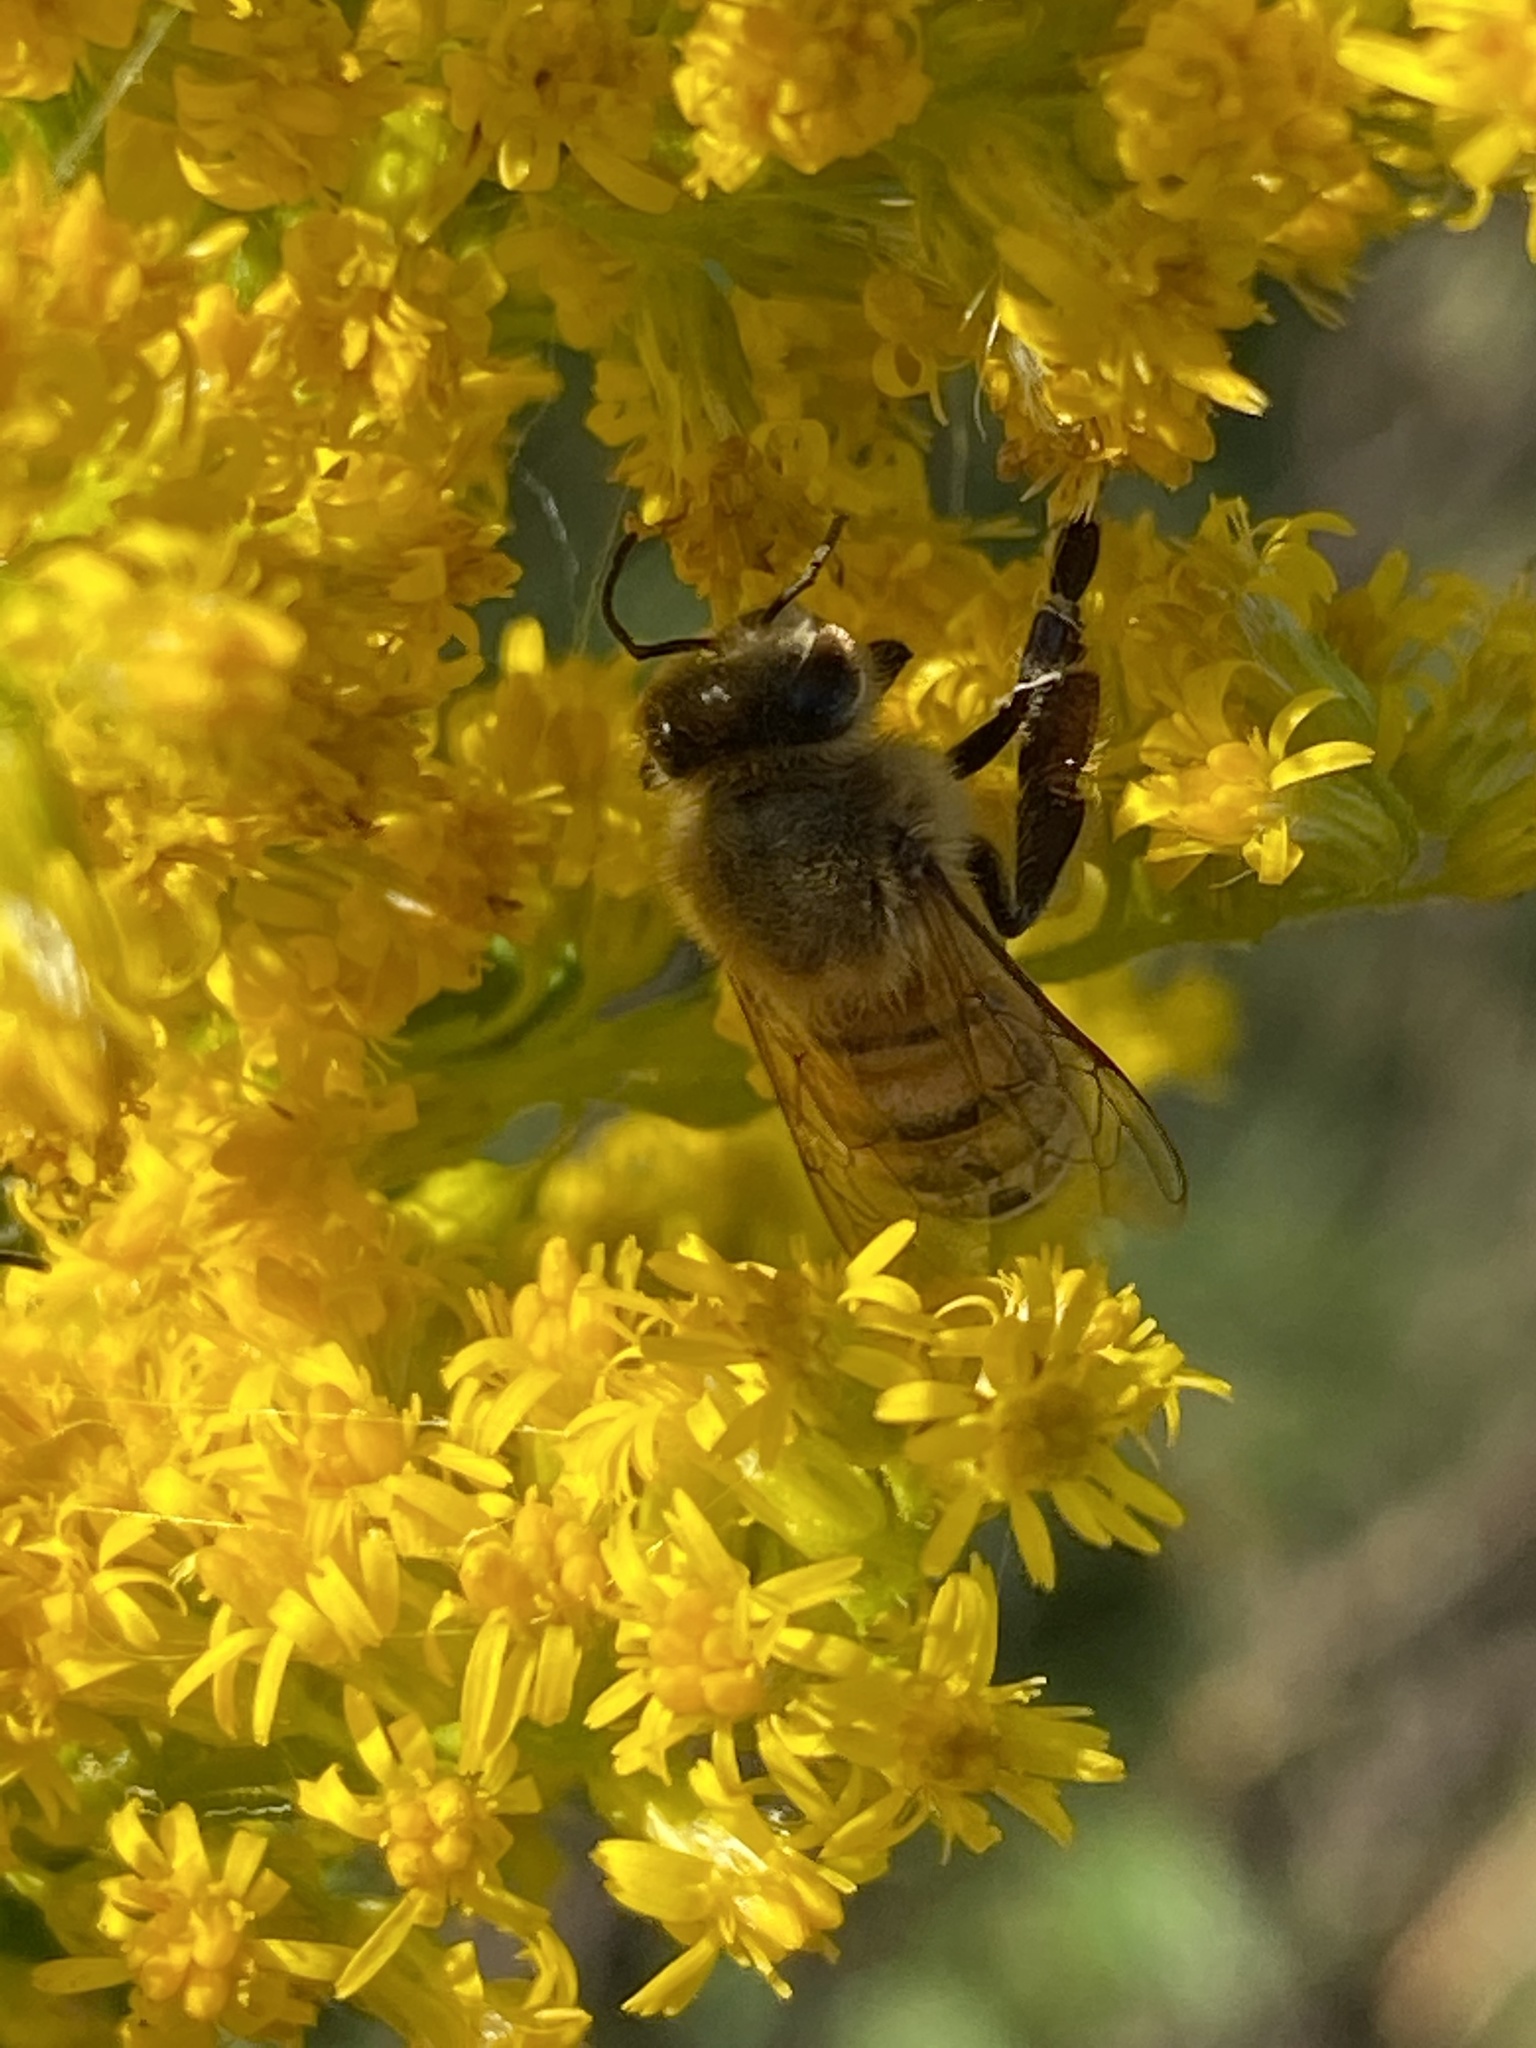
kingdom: Animalia
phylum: Arthropoda
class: Insecta
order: Hymenoptera
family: Apidae
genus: Apis
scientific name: Apis mellifera
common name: Honey bee
